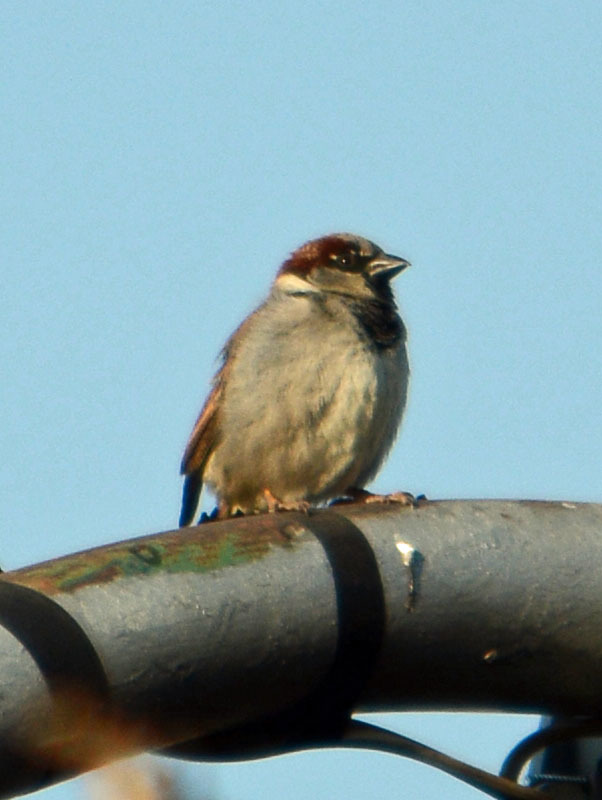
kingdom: Animalia
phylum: Chordata
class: Aves
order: Passeriformes
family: Passeridae
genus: Passer
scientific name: Passer domesticus
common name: House sparrow
